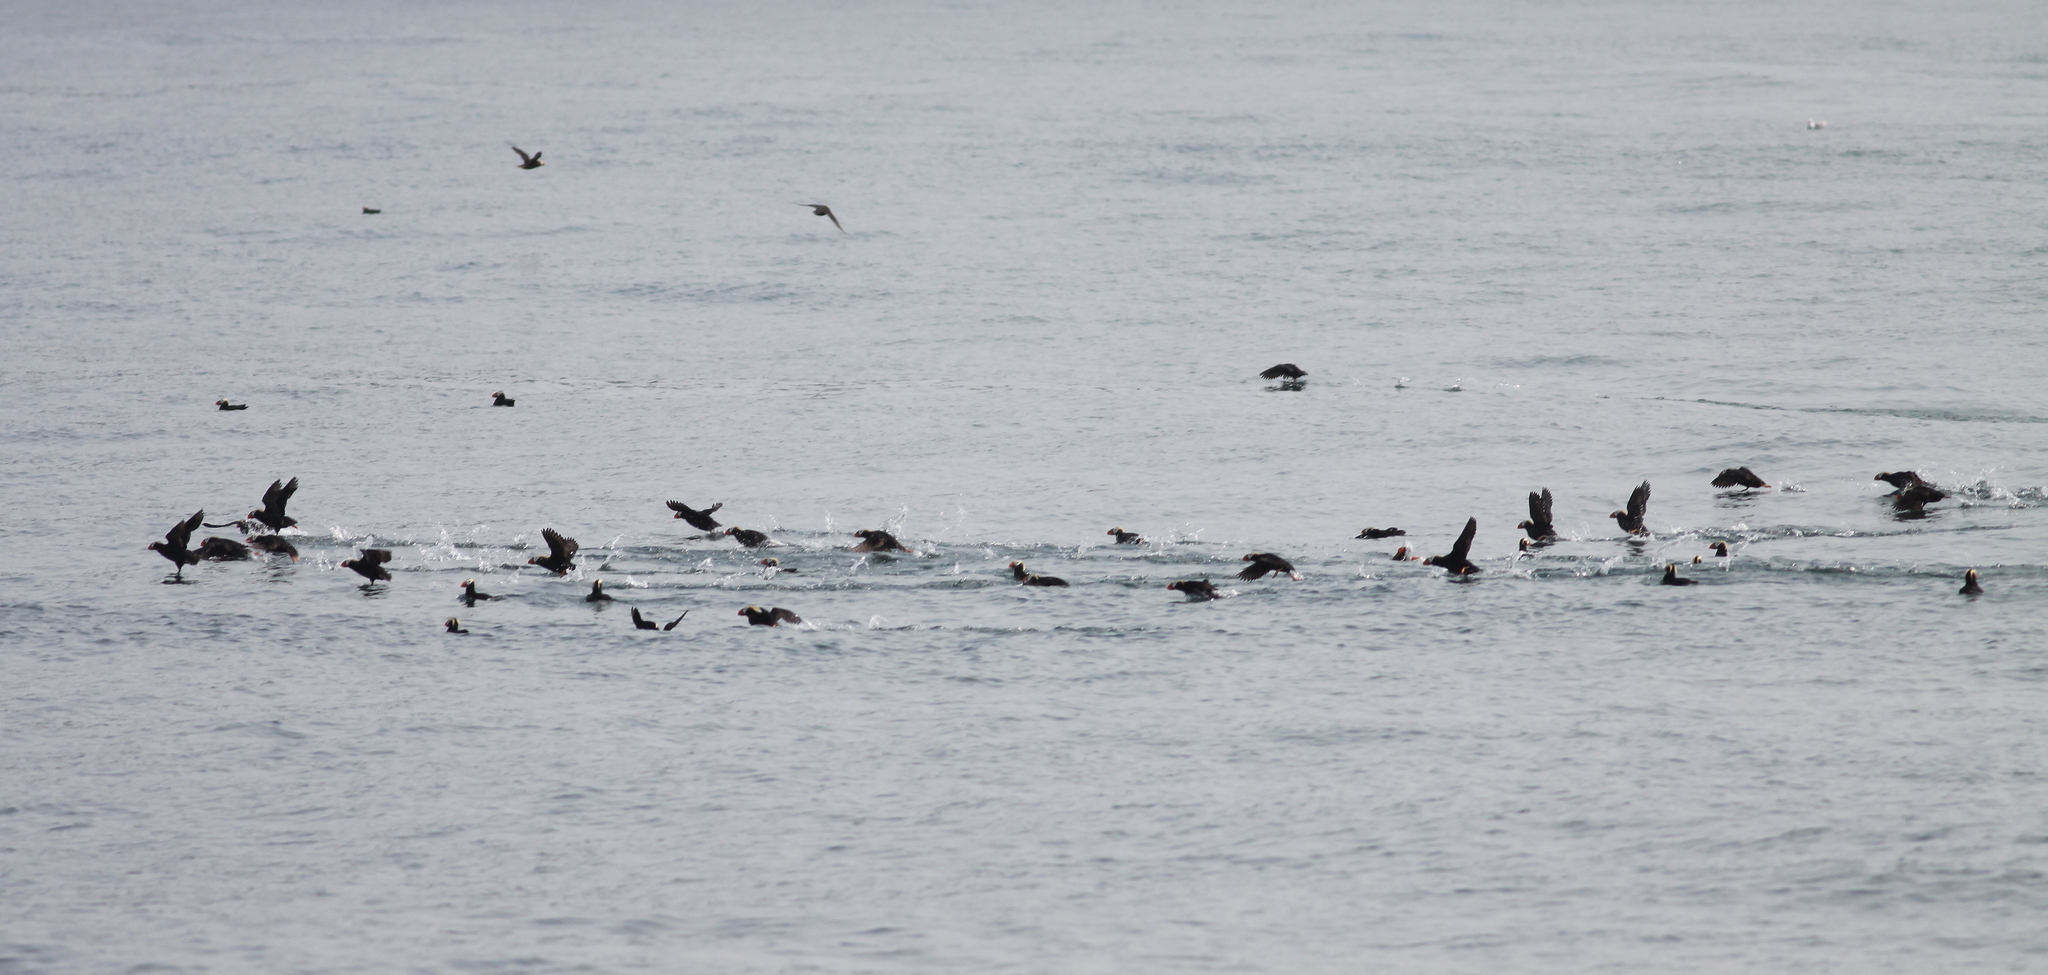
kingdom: Animalia
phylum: Chordata
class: Aves
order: Charadriiformes
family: Alcidae
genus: Fratercula
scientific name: Fratercula cirrhata
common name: Tufted puffin
